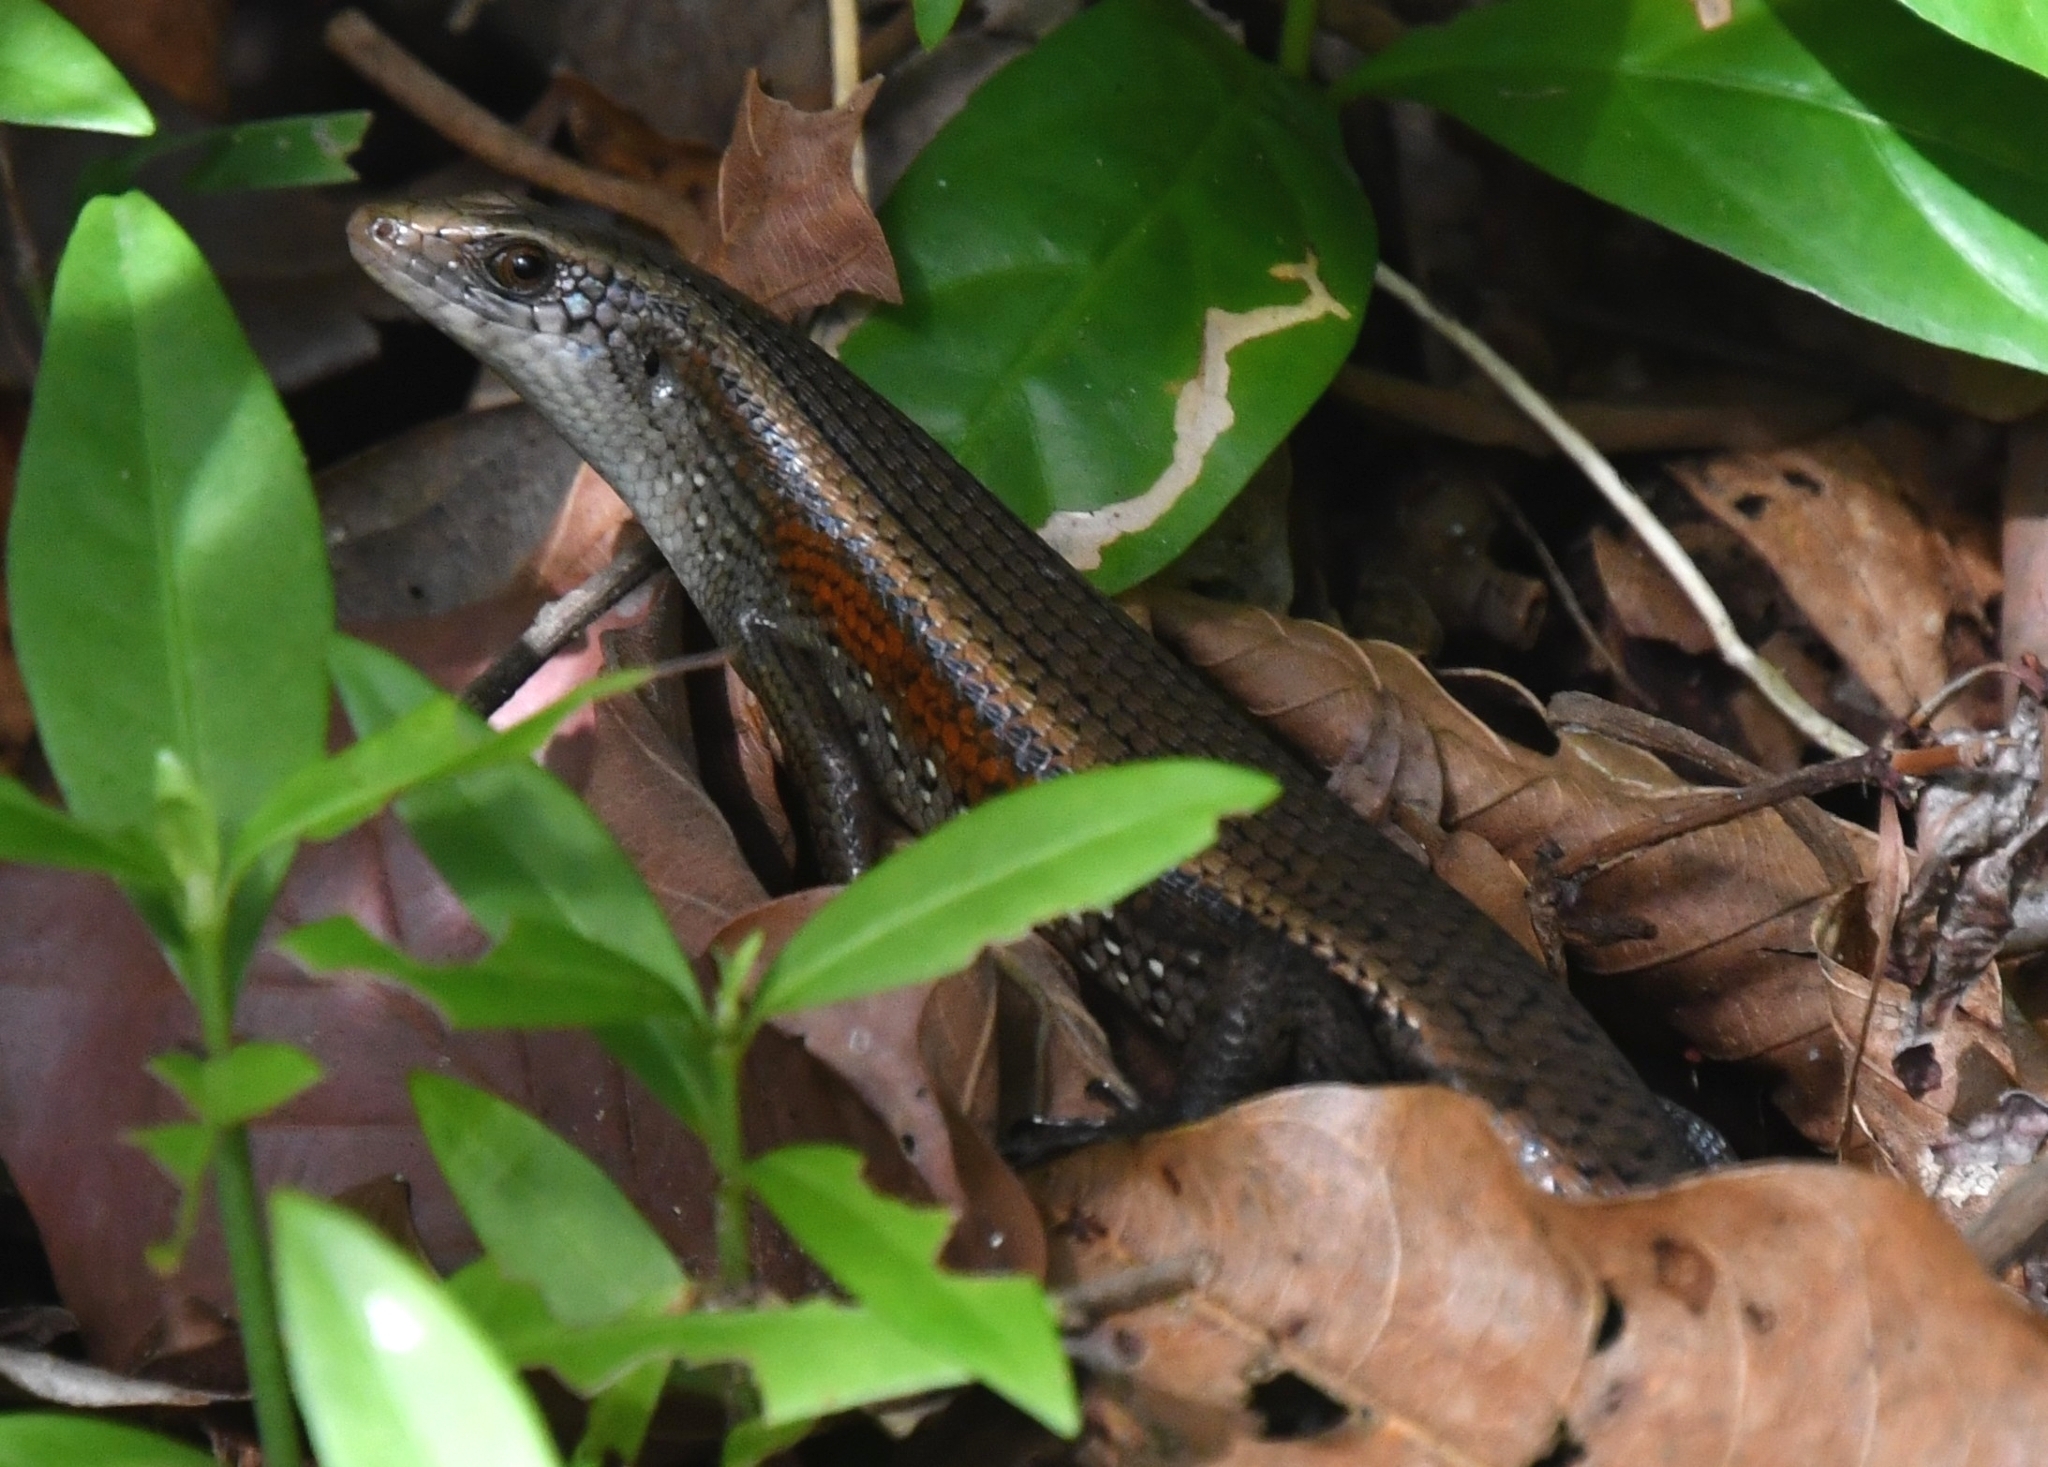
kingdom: Animalia
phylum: Chordata
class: Squamata
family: Scincidae
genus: Eutropis
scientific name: Eutropis multifasciata
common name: Common mabuya
